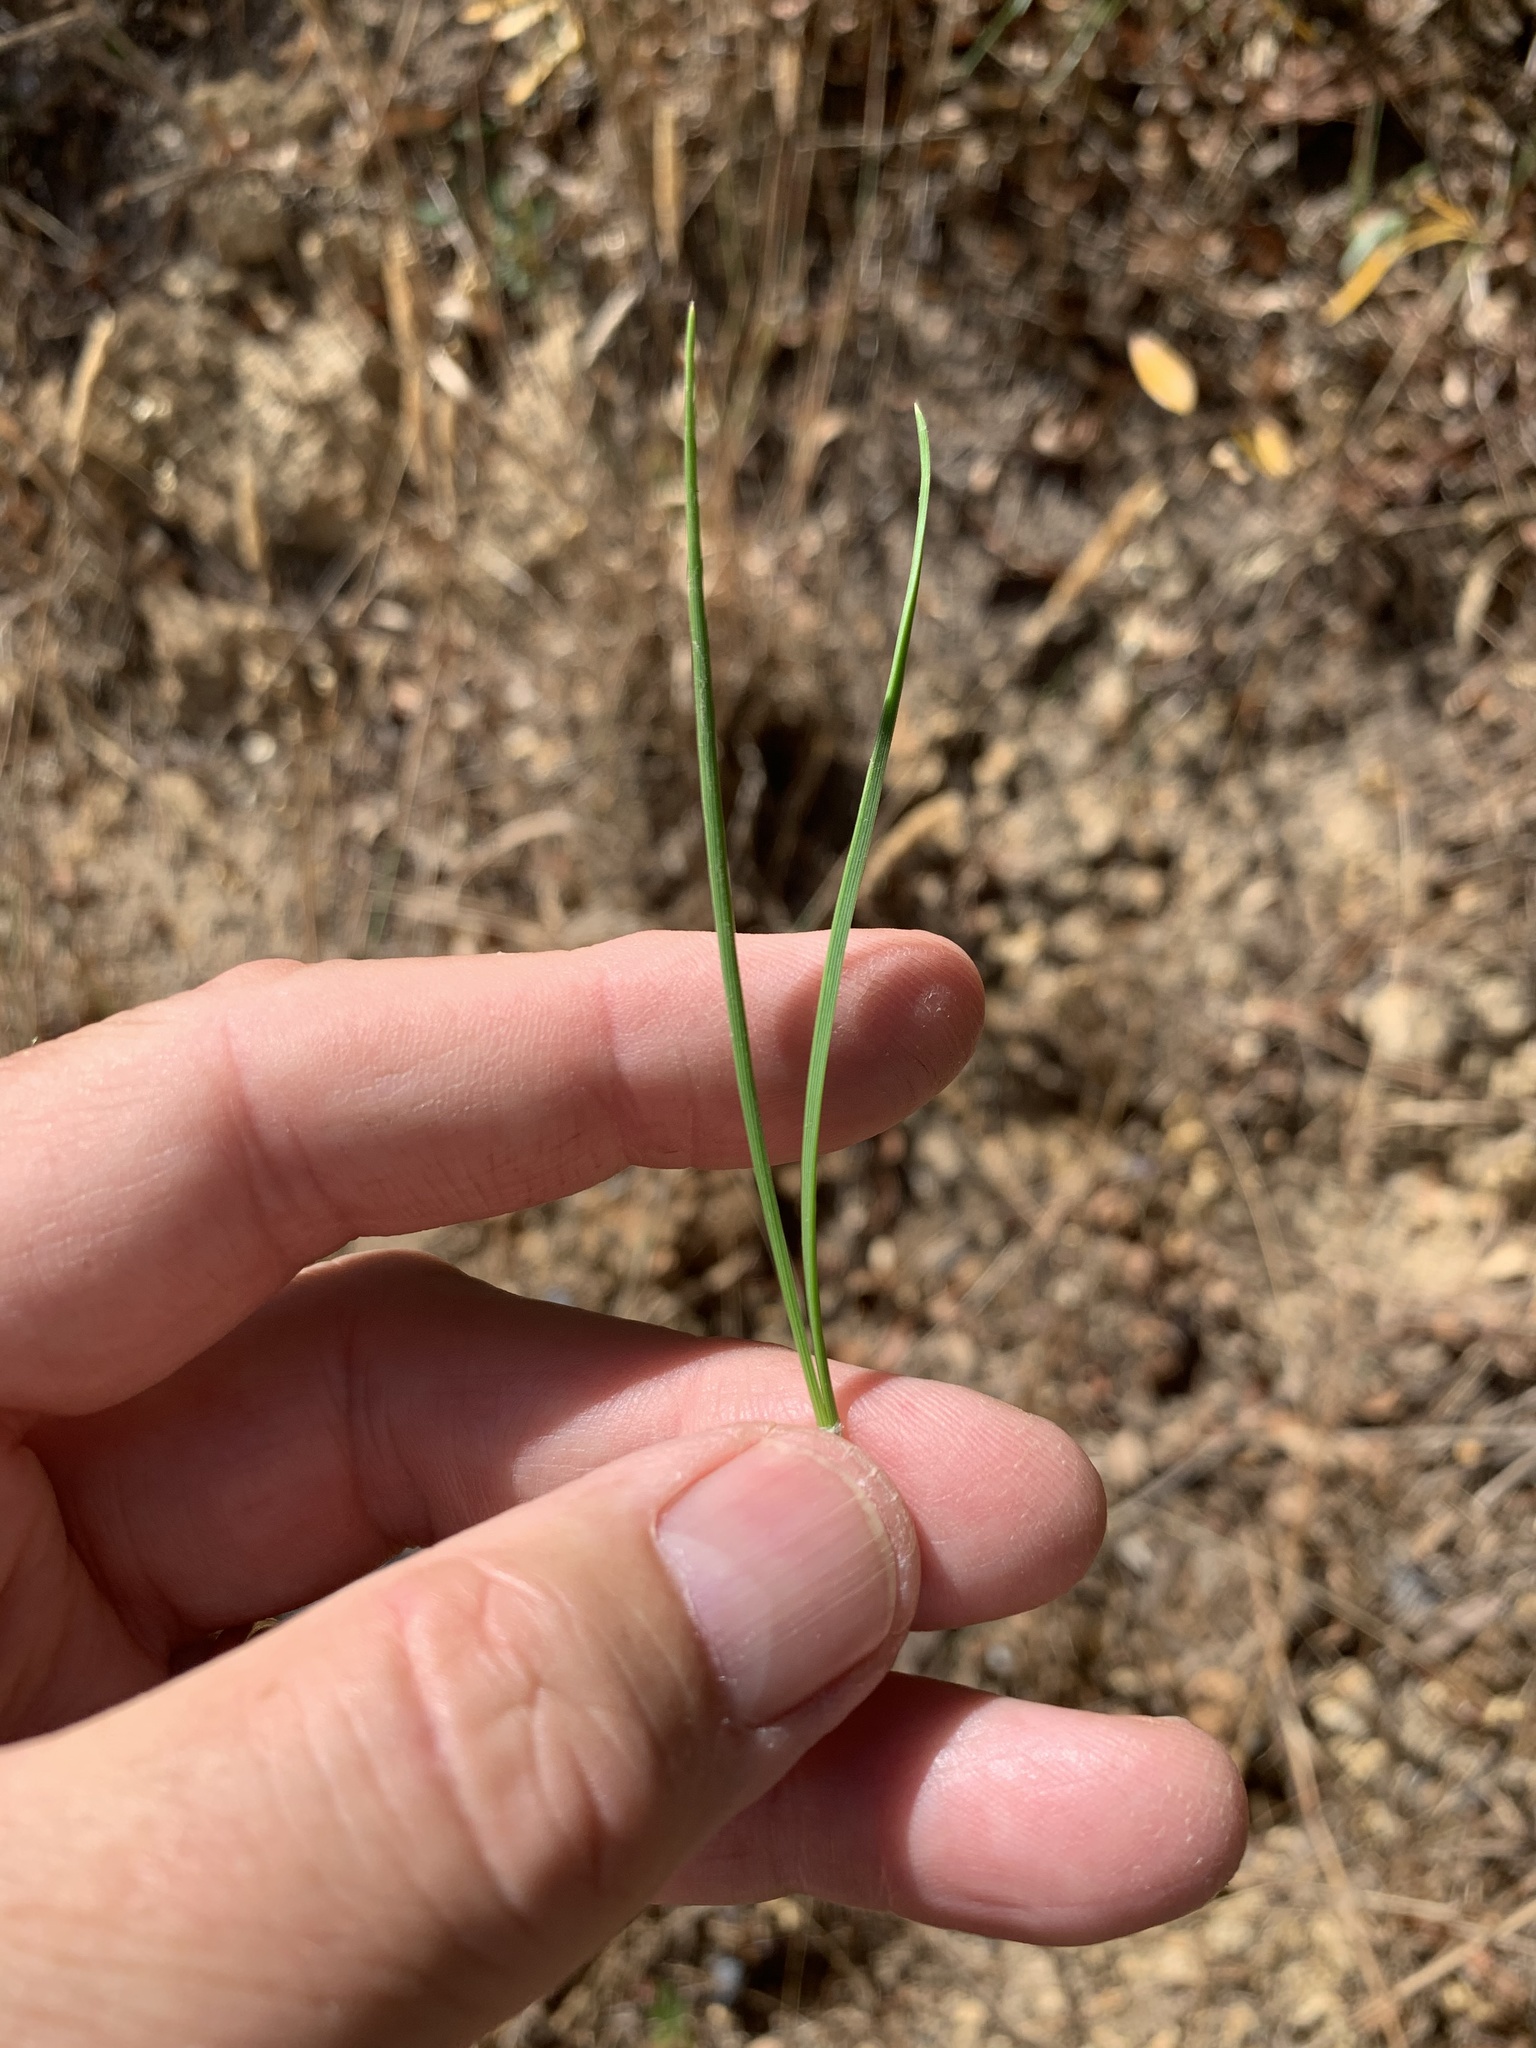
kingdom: Plantae
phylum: Tracheophyta
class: Pinopsida
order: Pinales
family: Pinaceae
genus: Pinus
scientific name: Pinus pinea
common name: Italian stone pine
